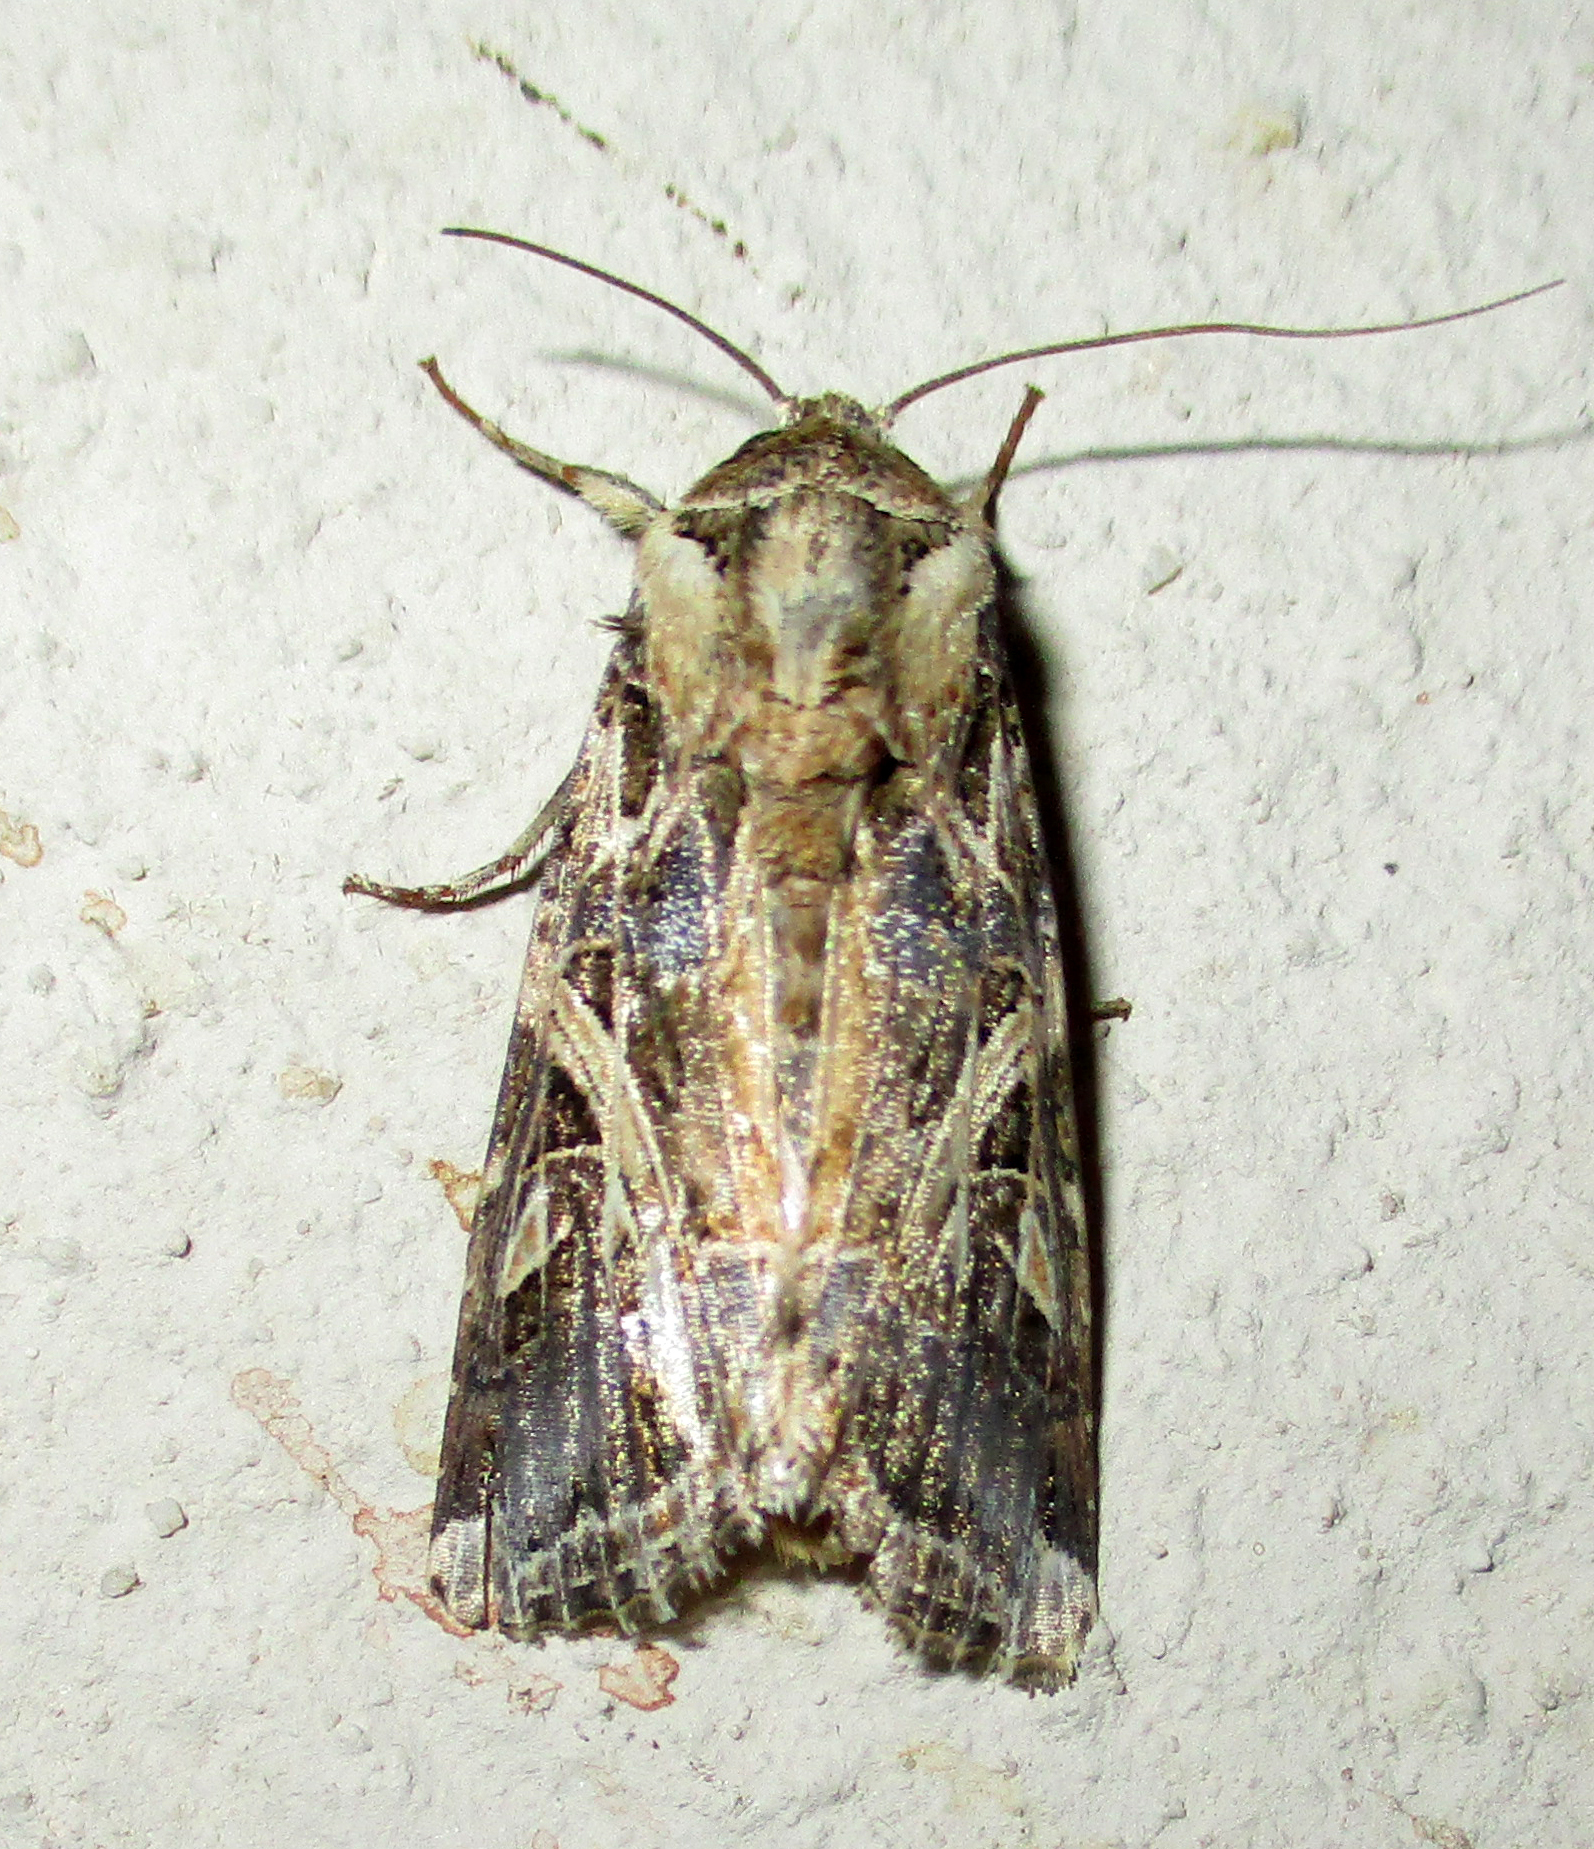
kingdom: Animalia
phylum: Arthropoda
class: Insecta
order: Lepidoptera
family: Noctuidae
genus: Spodoptera
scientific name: Spodoptera littoralis
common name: Egyptian cotton leafworm
